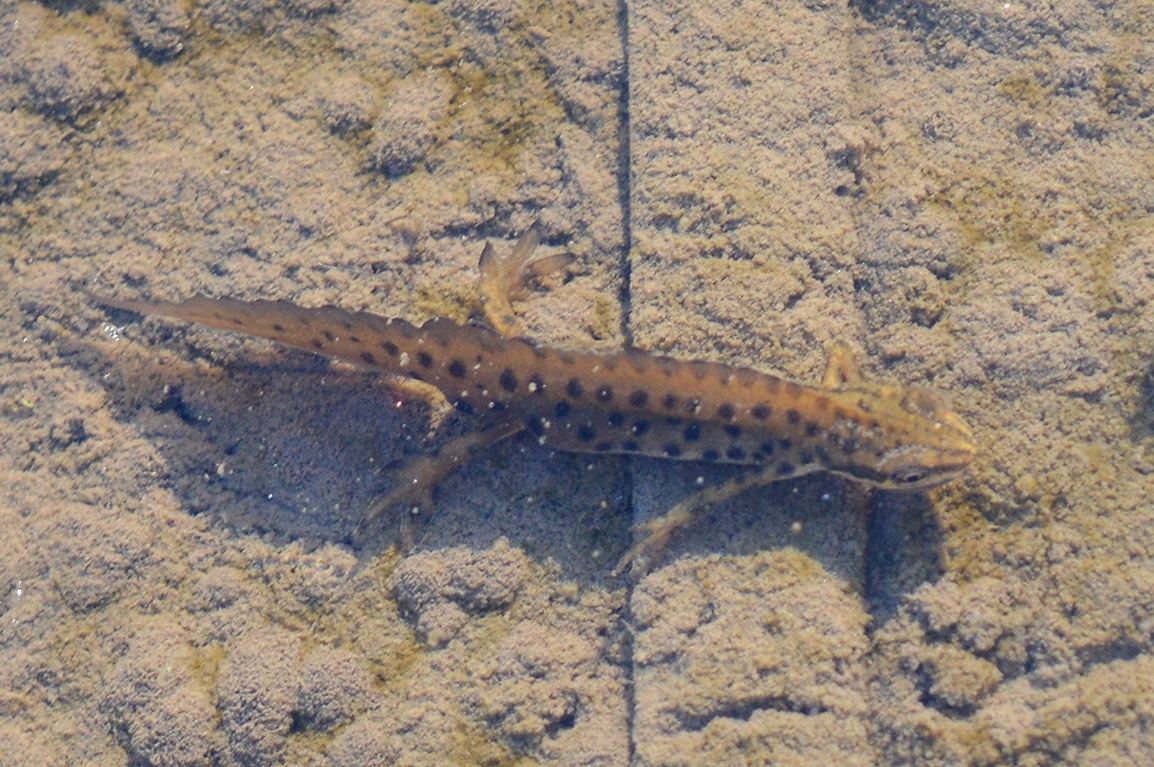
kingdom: Animalia
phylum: Chordata
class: Amphibia
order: Caudata
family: Salamandridae
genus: Lissotriton
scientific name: Lissotriton vulgaris
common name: Smooth newt
